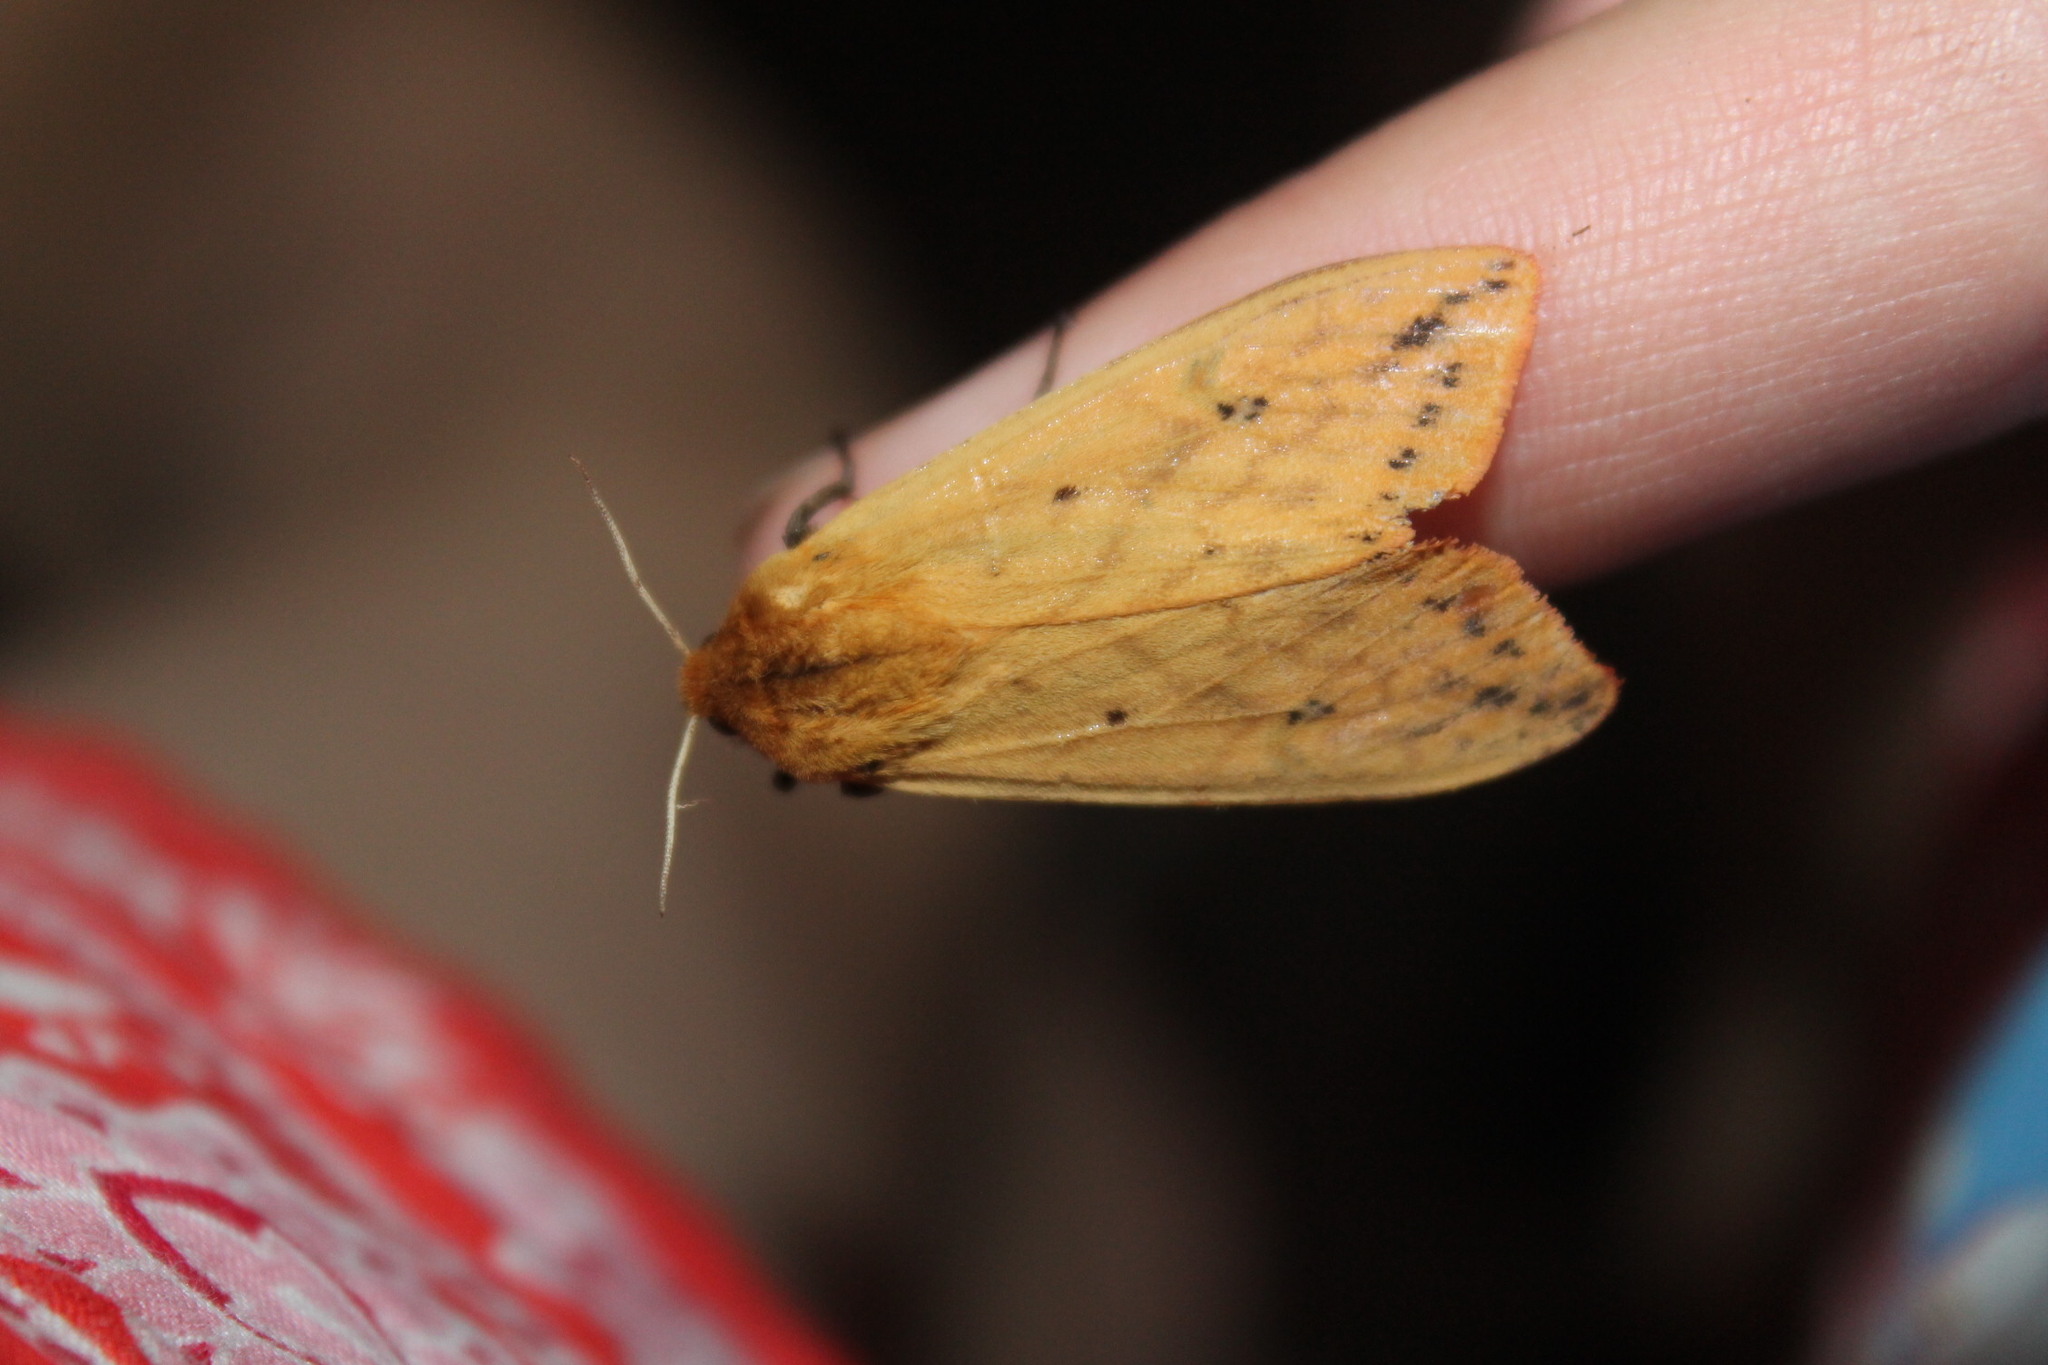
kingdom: Animalia
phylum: Arthropoda
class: Insecta
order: Lepidoptera
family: Erebidae
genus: Pyrrharctia
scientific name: Pyrrharctia isabella
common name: Isabella tiger moth
